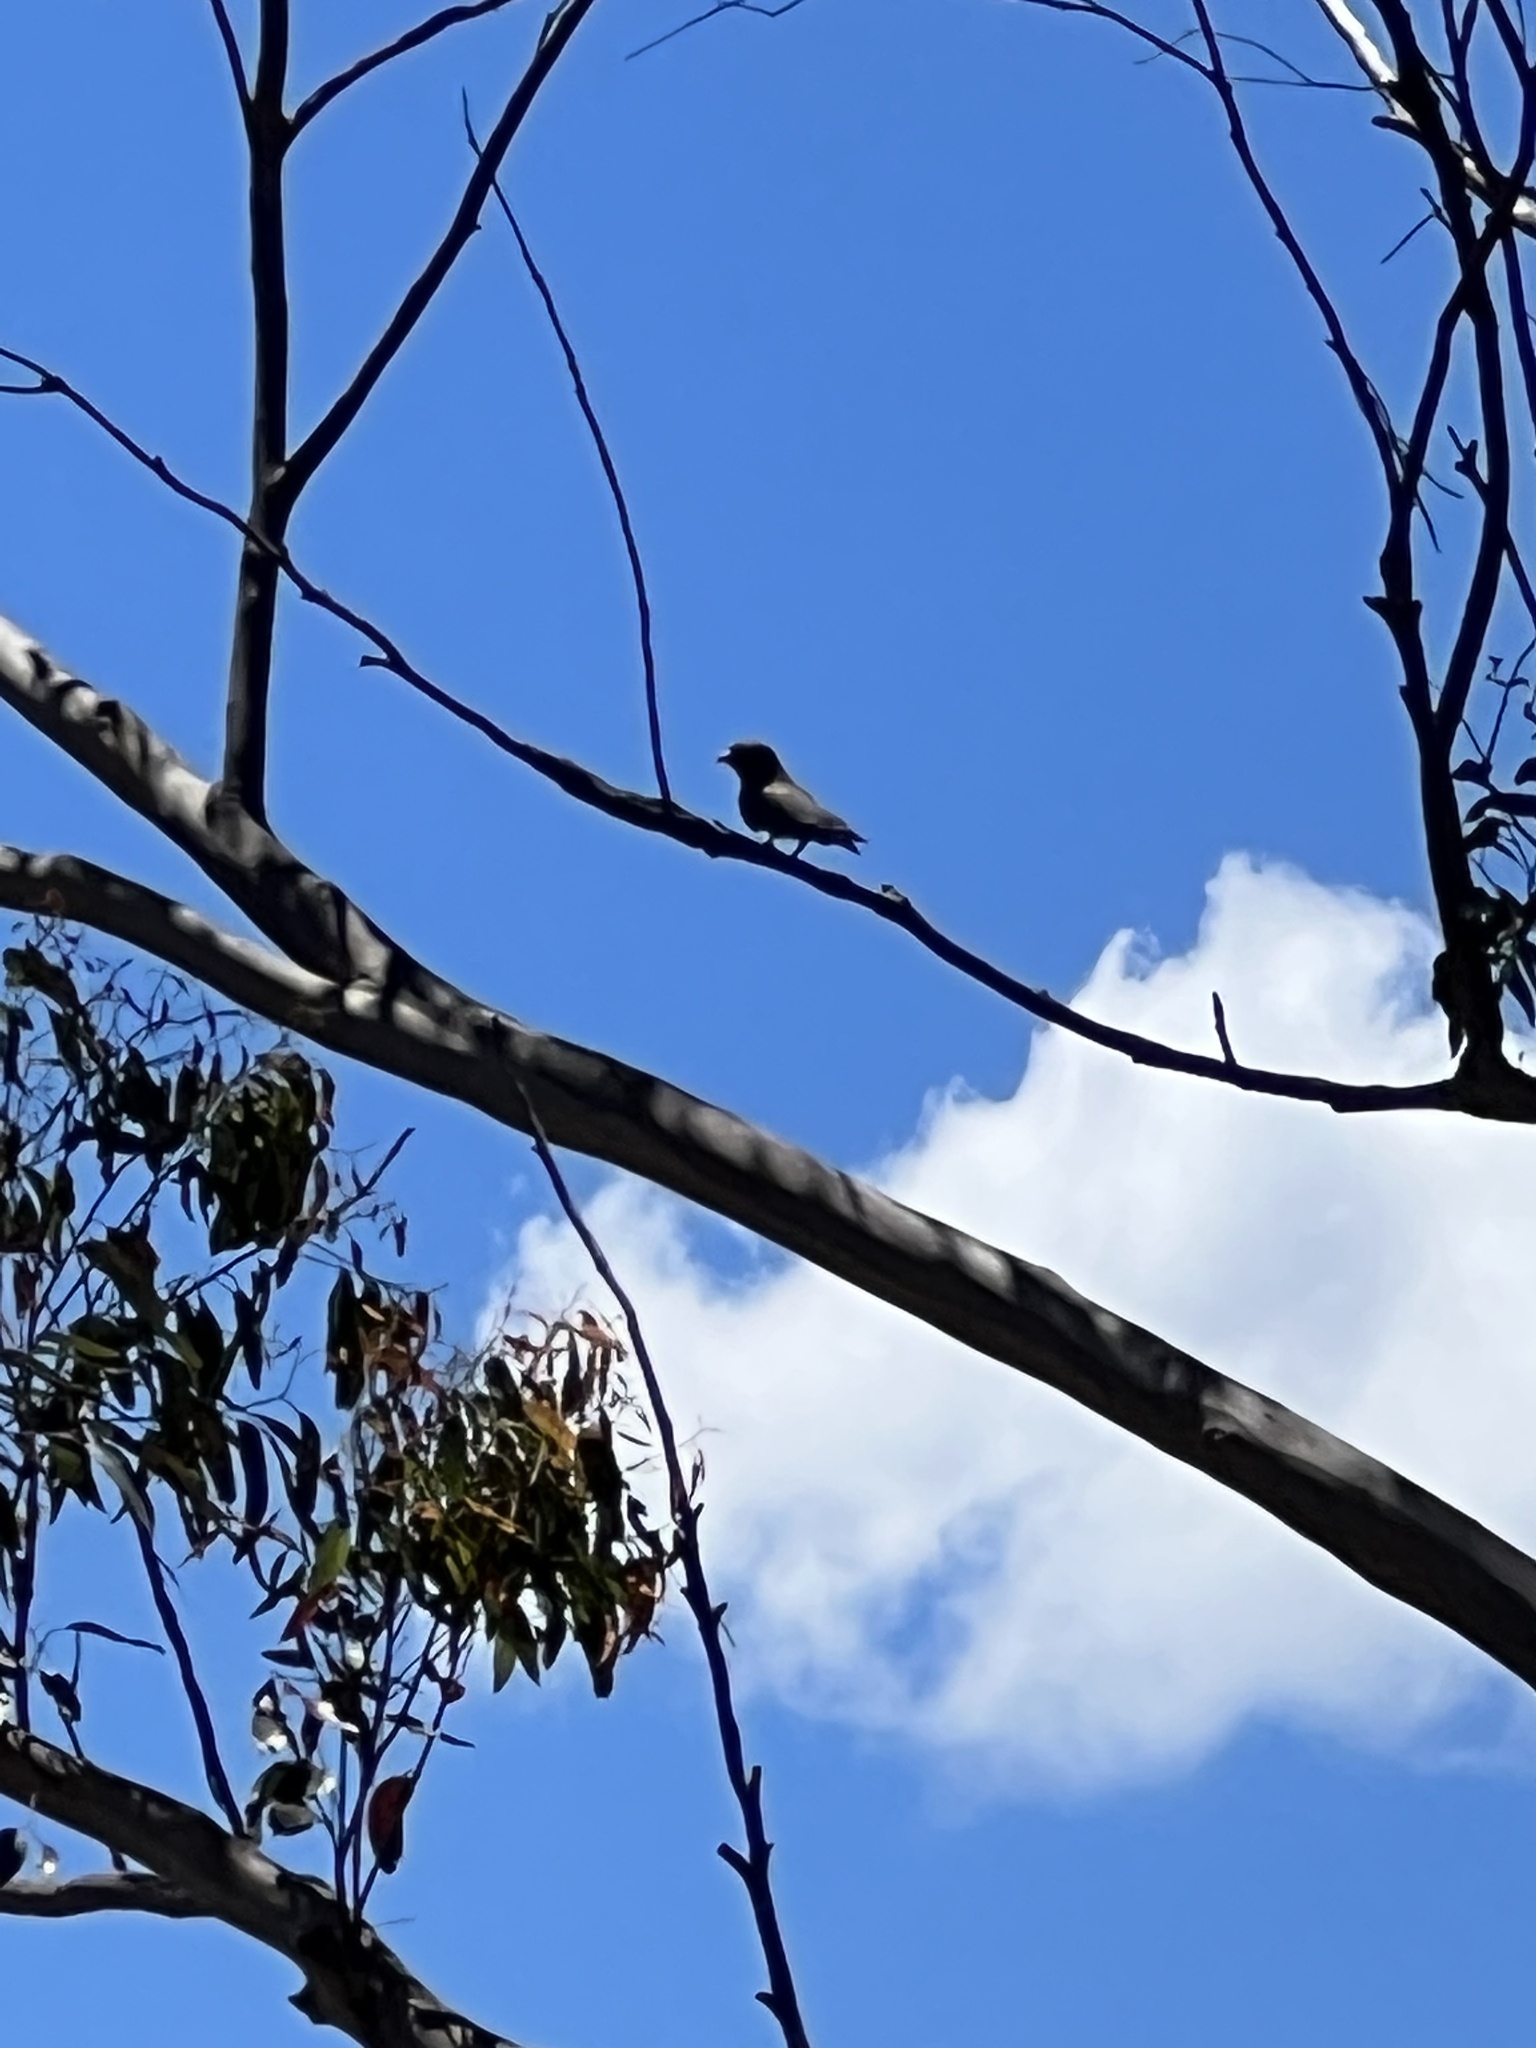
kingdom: Animalia
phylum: Chordata
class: Aves
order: Coraciiformes
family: Coraciidae
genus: Eurystomus
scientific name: Eurystomus orientalis
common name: Oriental dollarbird
